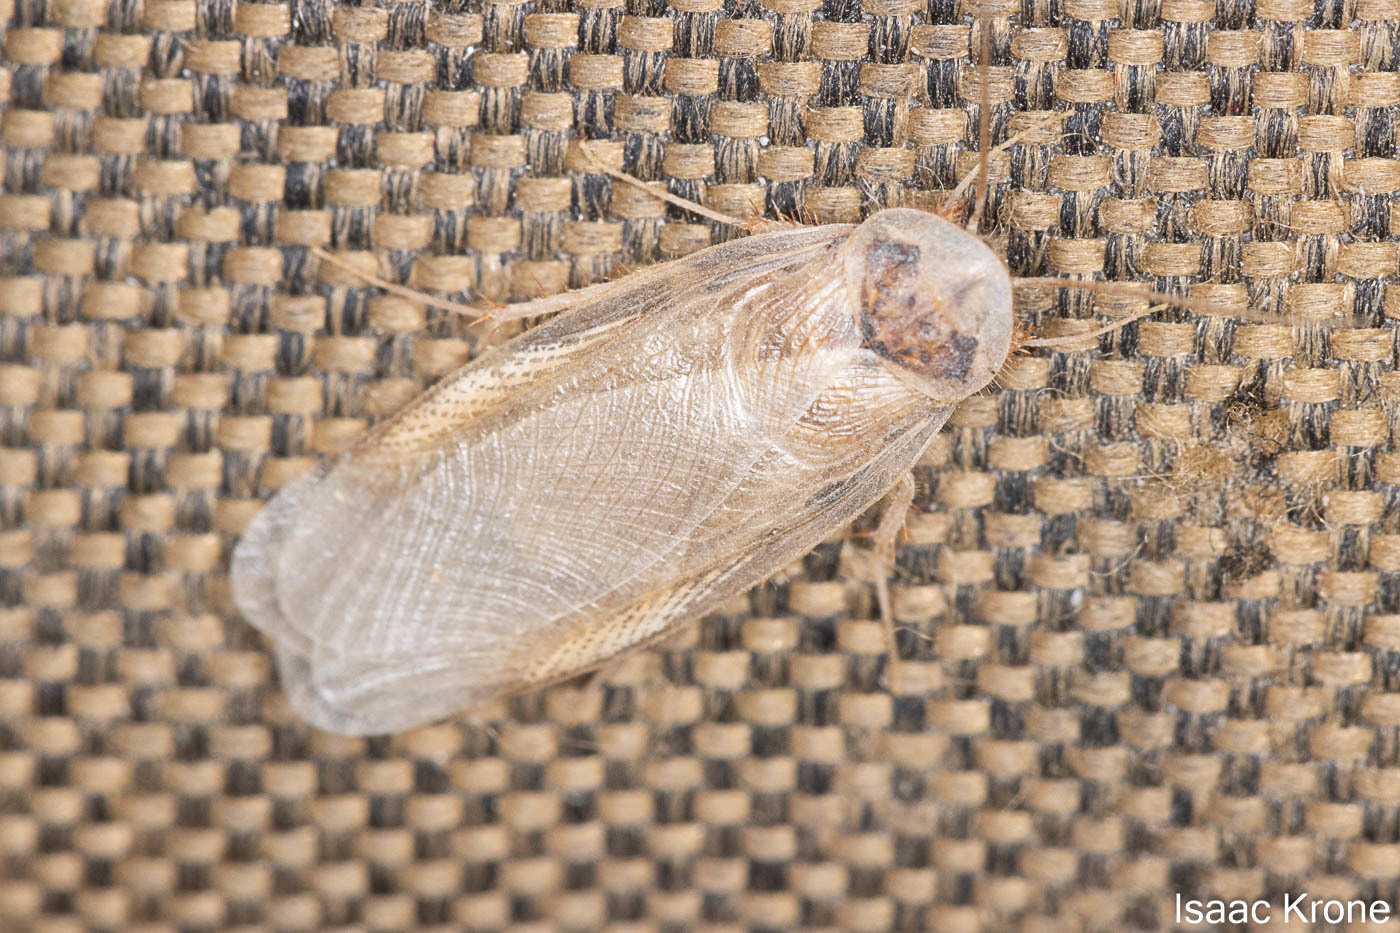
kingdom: Animalia
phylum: Arthropoda
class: Insecta
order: Blattodea
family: Corydiidae
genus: Arenivaga
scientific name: Arenivaga investigata
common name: Southern californian sand cockroach
